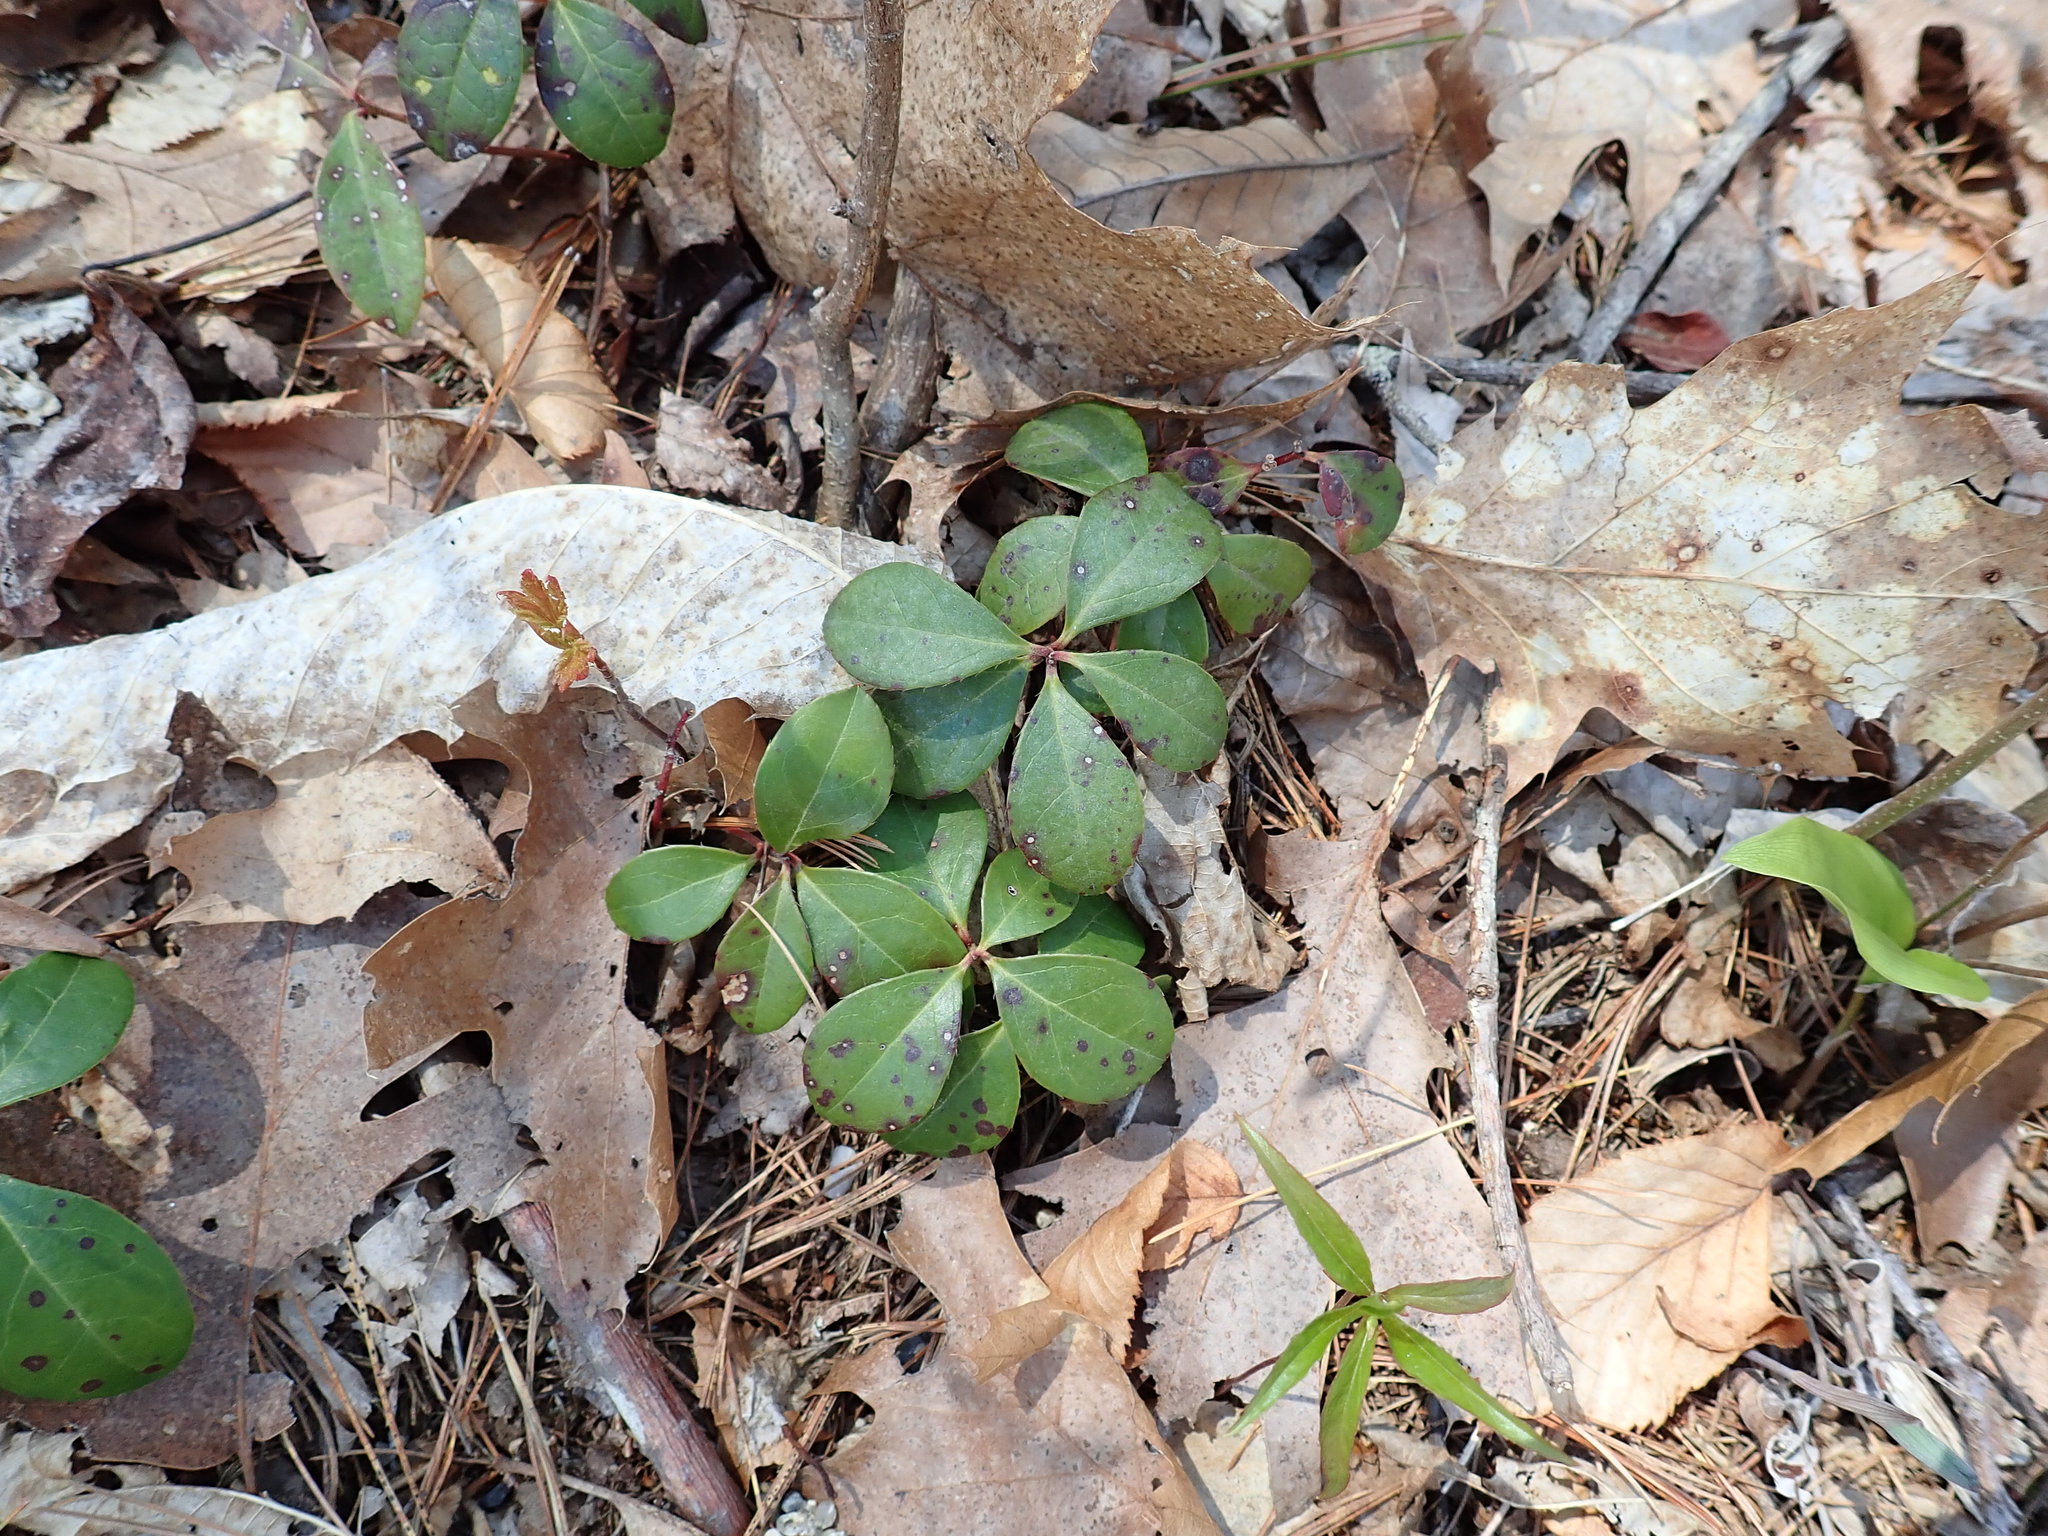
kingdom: Plantae
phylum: Tracheophyta
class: Magnoliopsida
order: Ericales
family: Ericaceae
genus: Gaultheria
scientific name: Gaultheria procumbens
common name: Checkerberry
